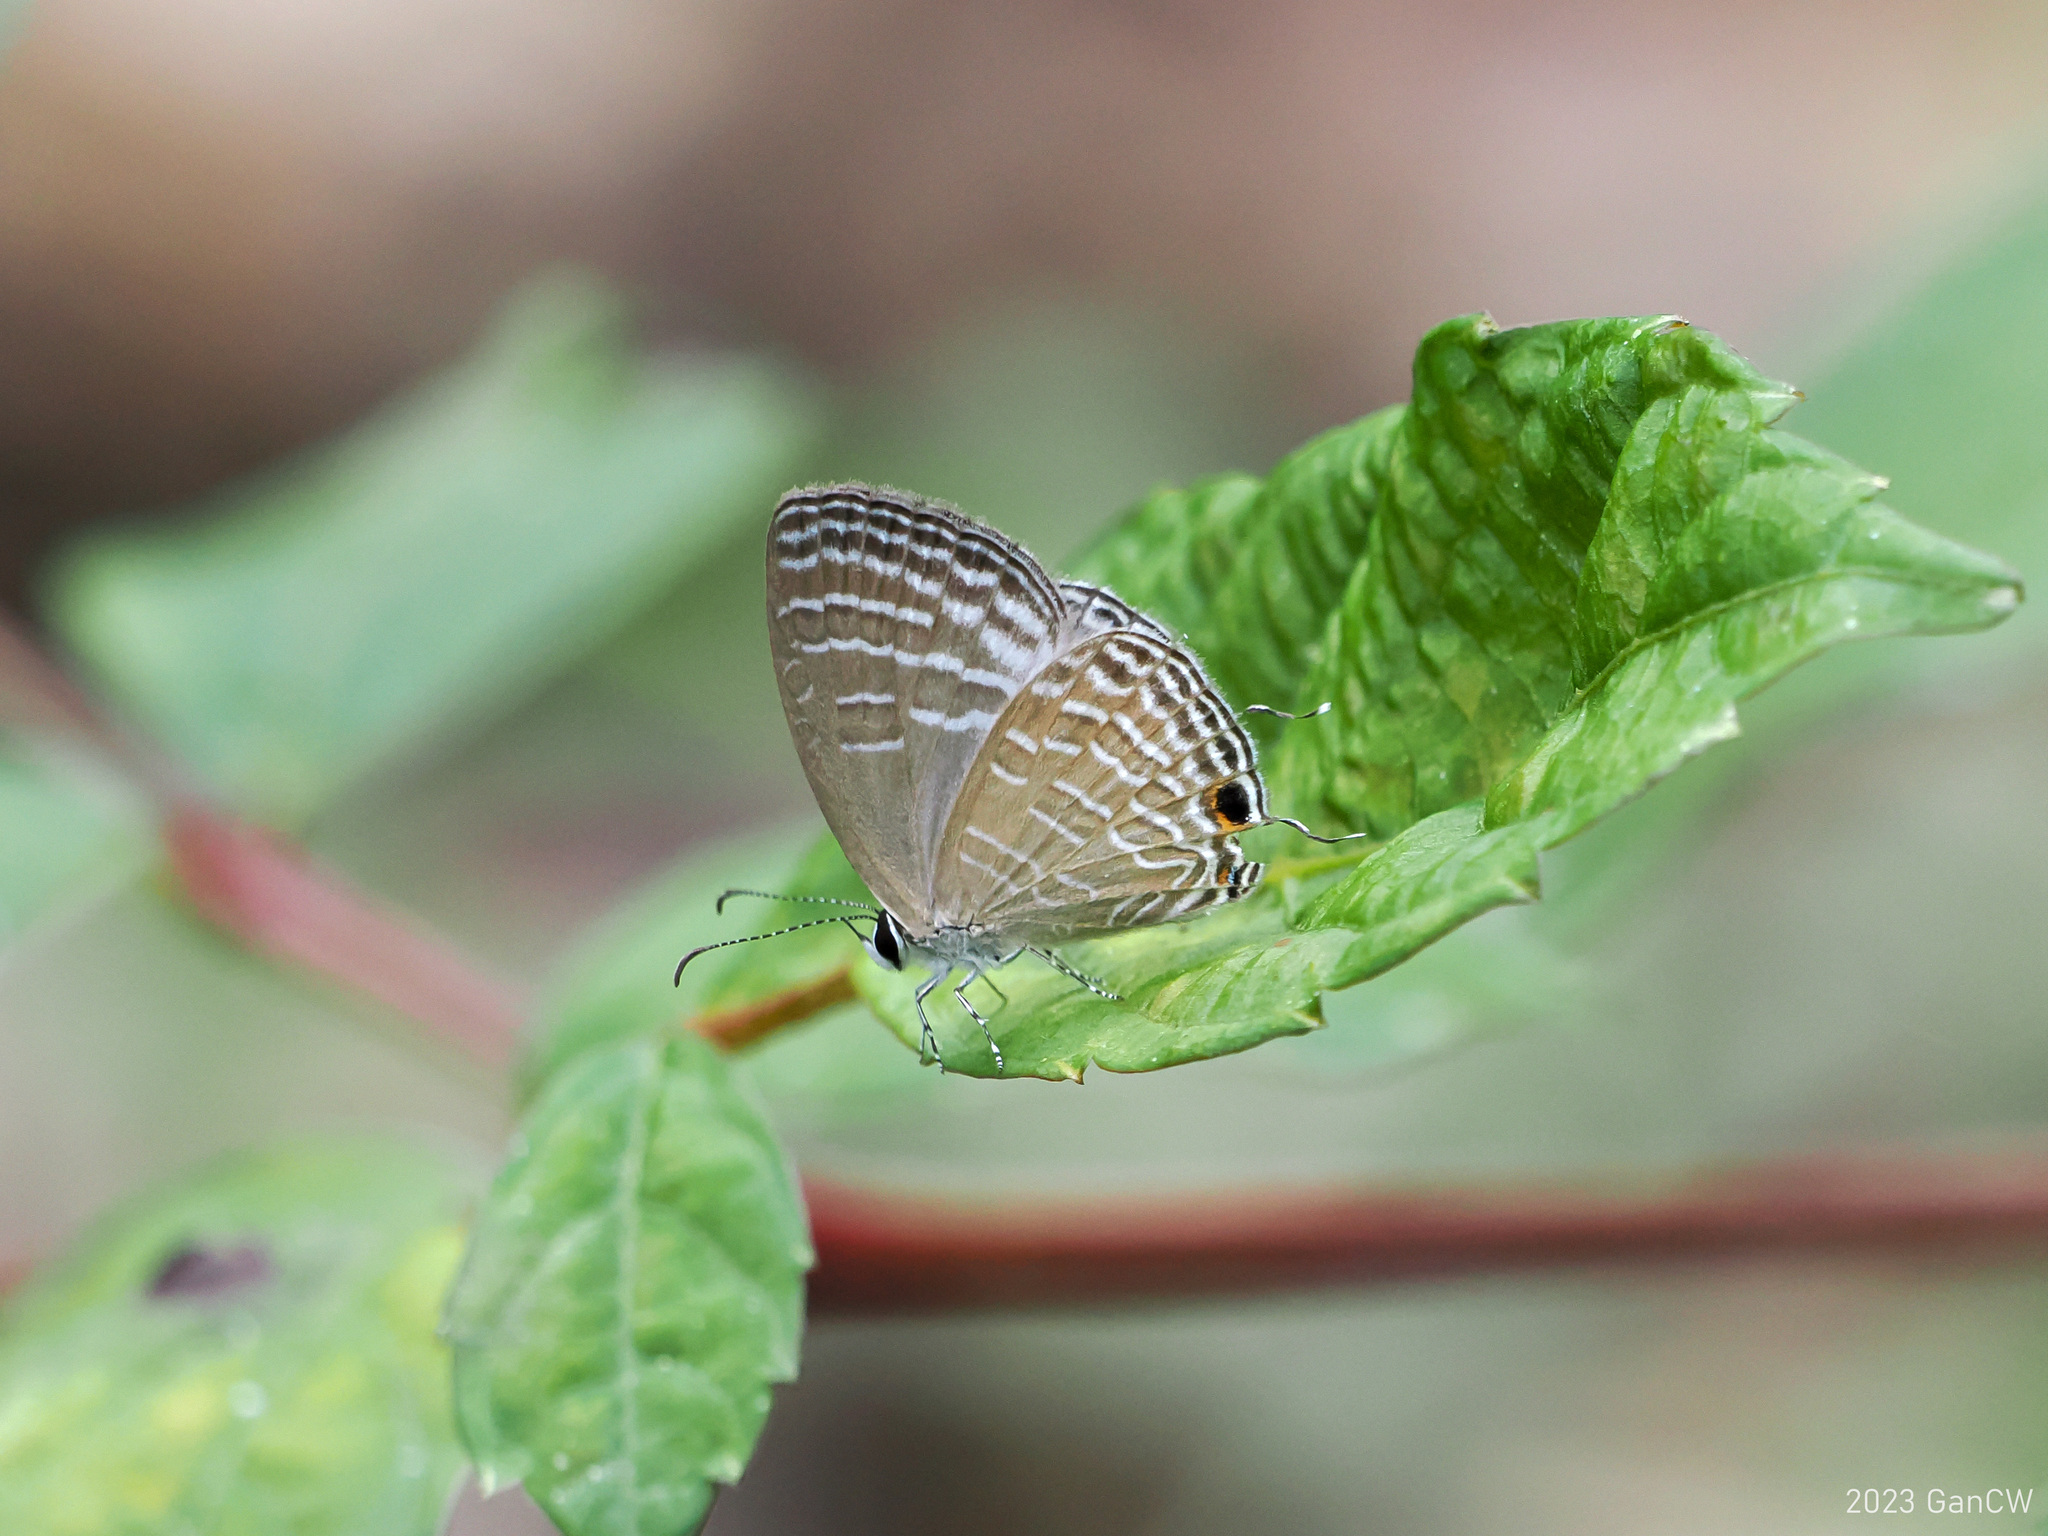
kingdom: Animalia
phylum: Arthropoda
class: Insecta
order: Lepidoptera
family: Lycaenidae
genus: Jamides
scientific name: Jamides celeno
